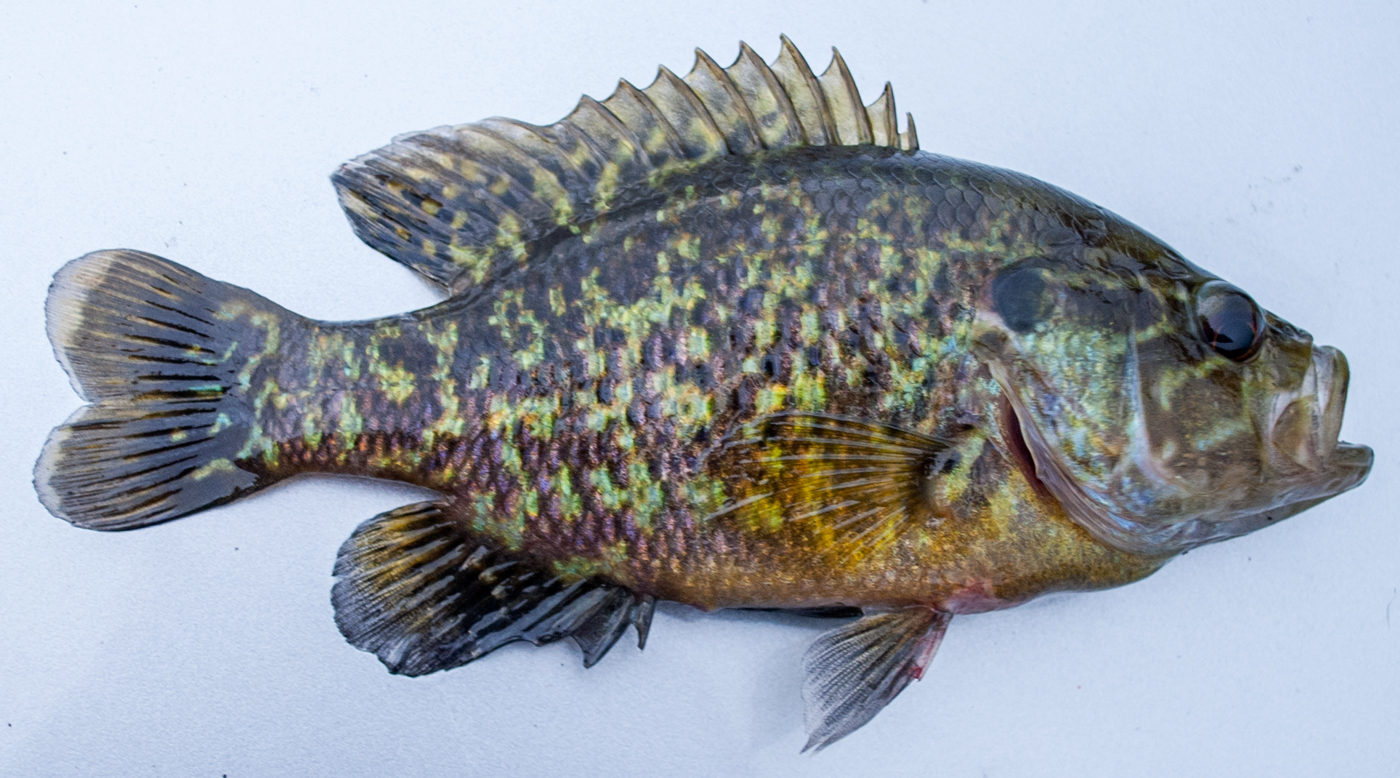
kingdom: Animalia
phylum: Chordata
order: Perciformes
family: Centrarchidae
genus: Lepomis
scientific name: Lepomis gulosus
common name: Warmouth
